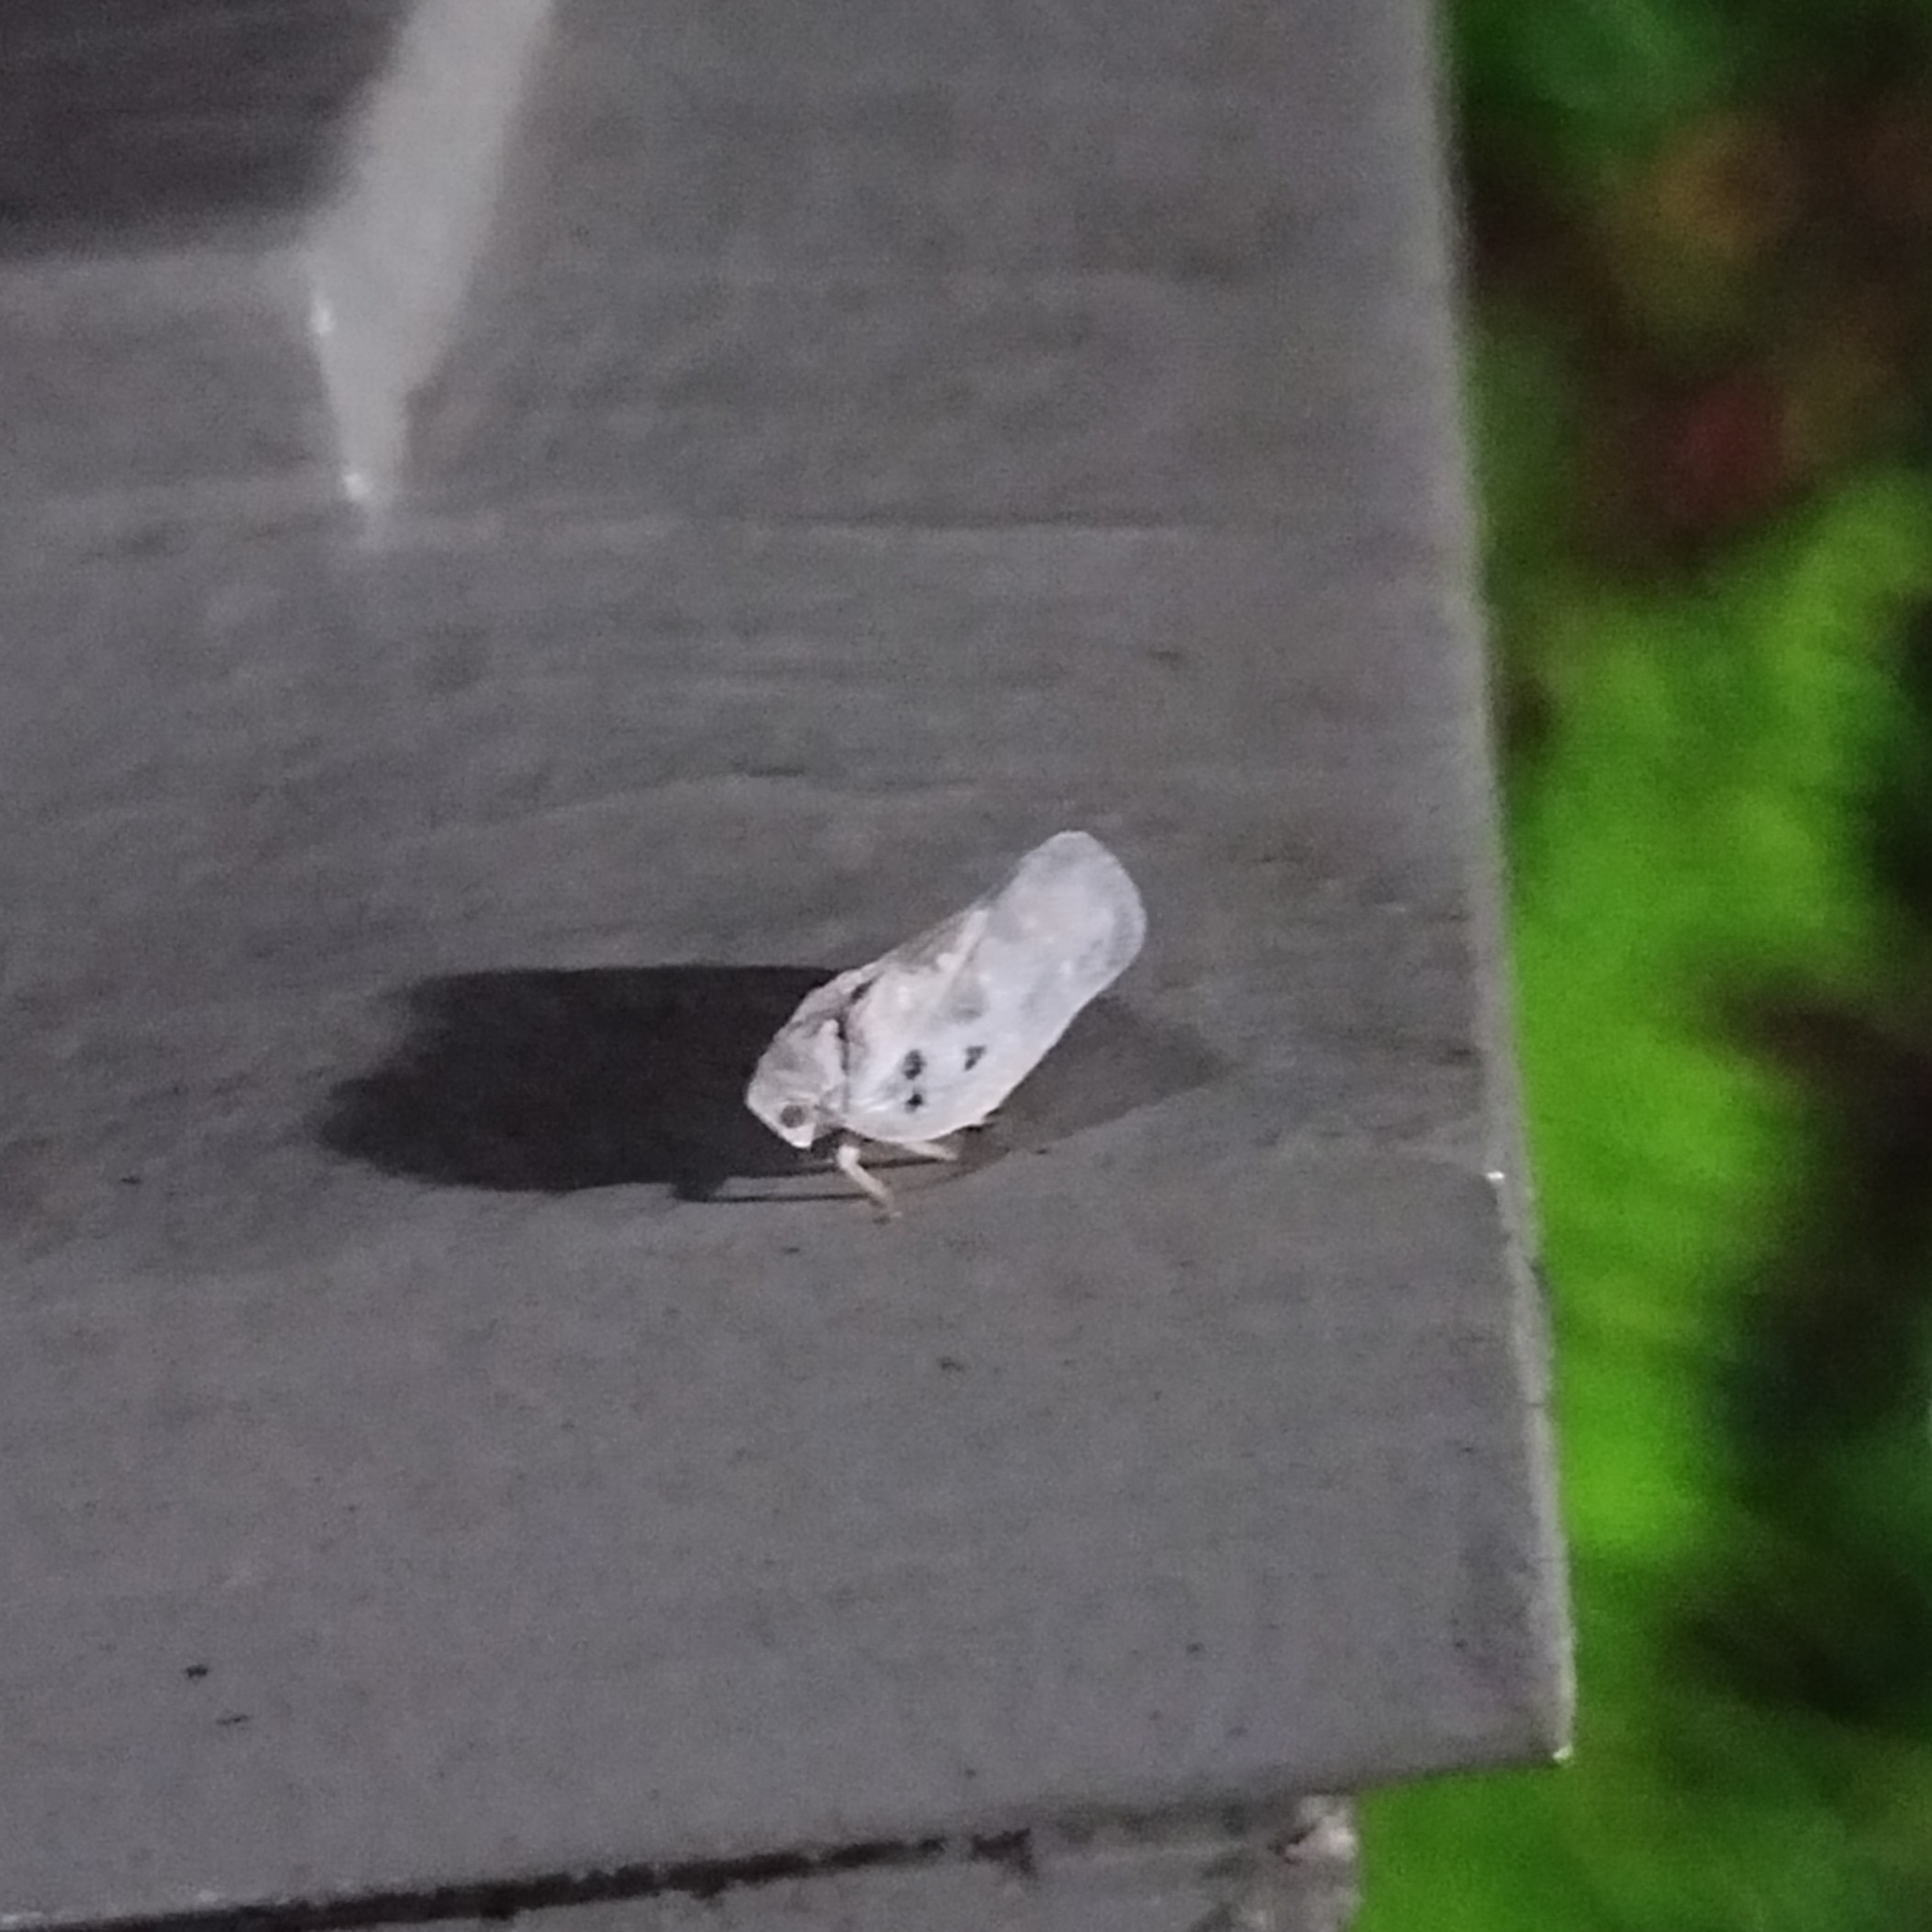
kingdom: Animalia
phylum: Arthropoda
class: Insecta
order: Hemiptera
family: Flatidae
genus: Metcalfa
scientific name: Metcalfa pruinosa
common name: Citrus flatid planthopper
